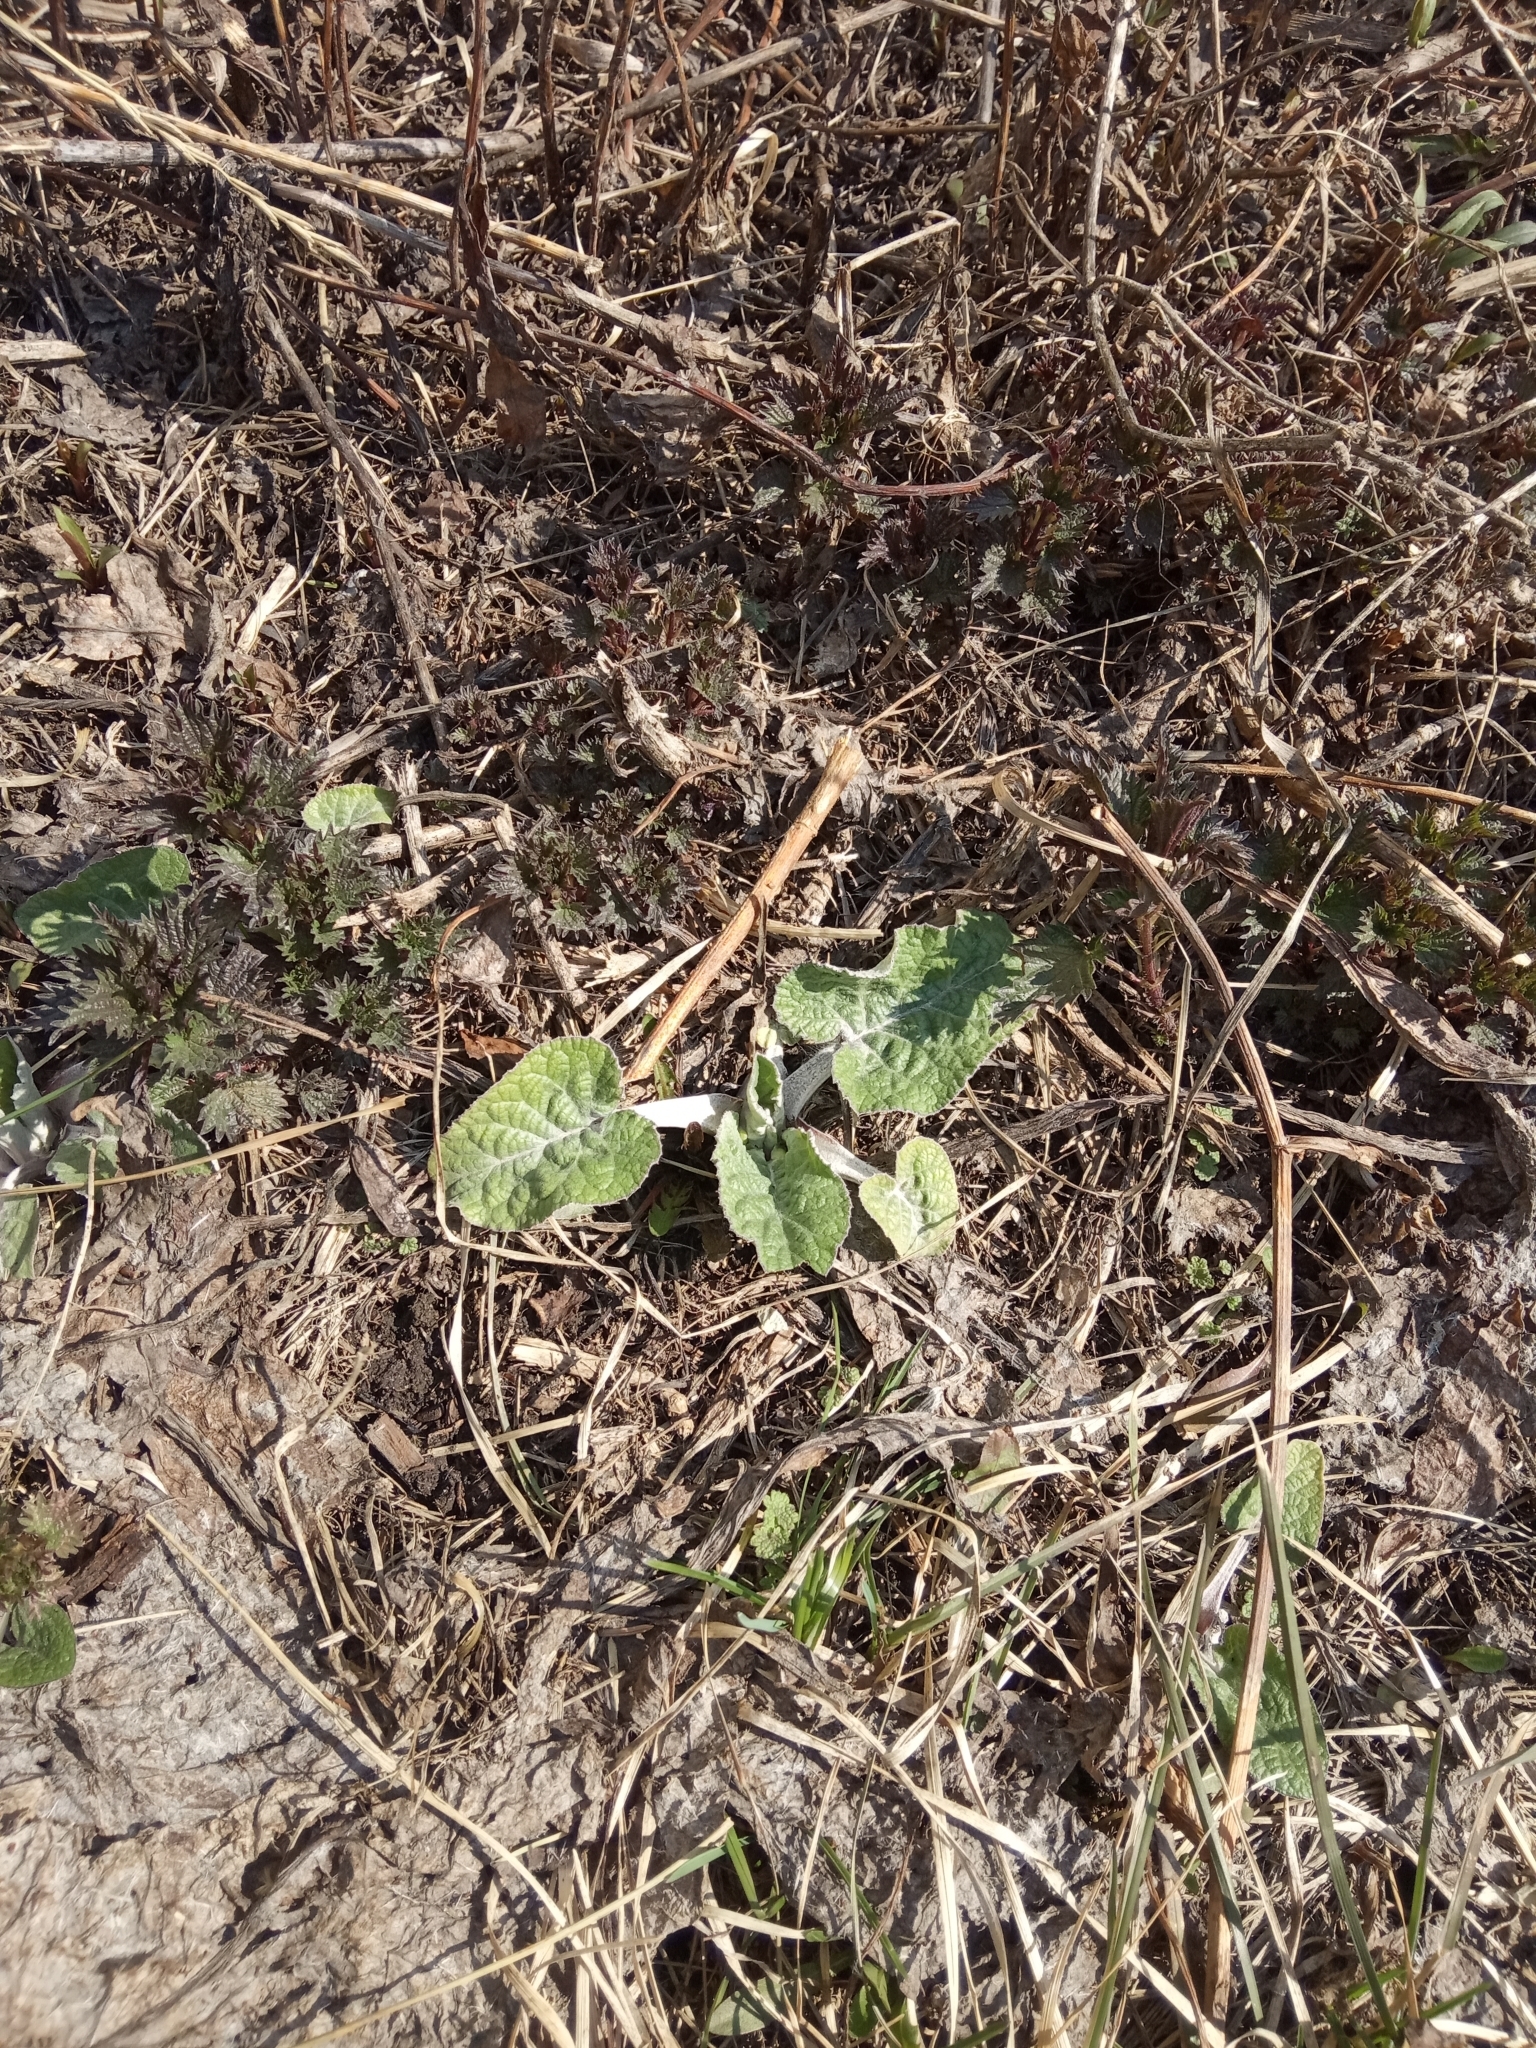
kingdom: Plantae
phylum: Tracheophyta
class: Magnoliopsida
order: Asterales
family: Asteraceae
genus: Arctium
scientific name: Arctium tomentosum
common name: Woolly burdock
